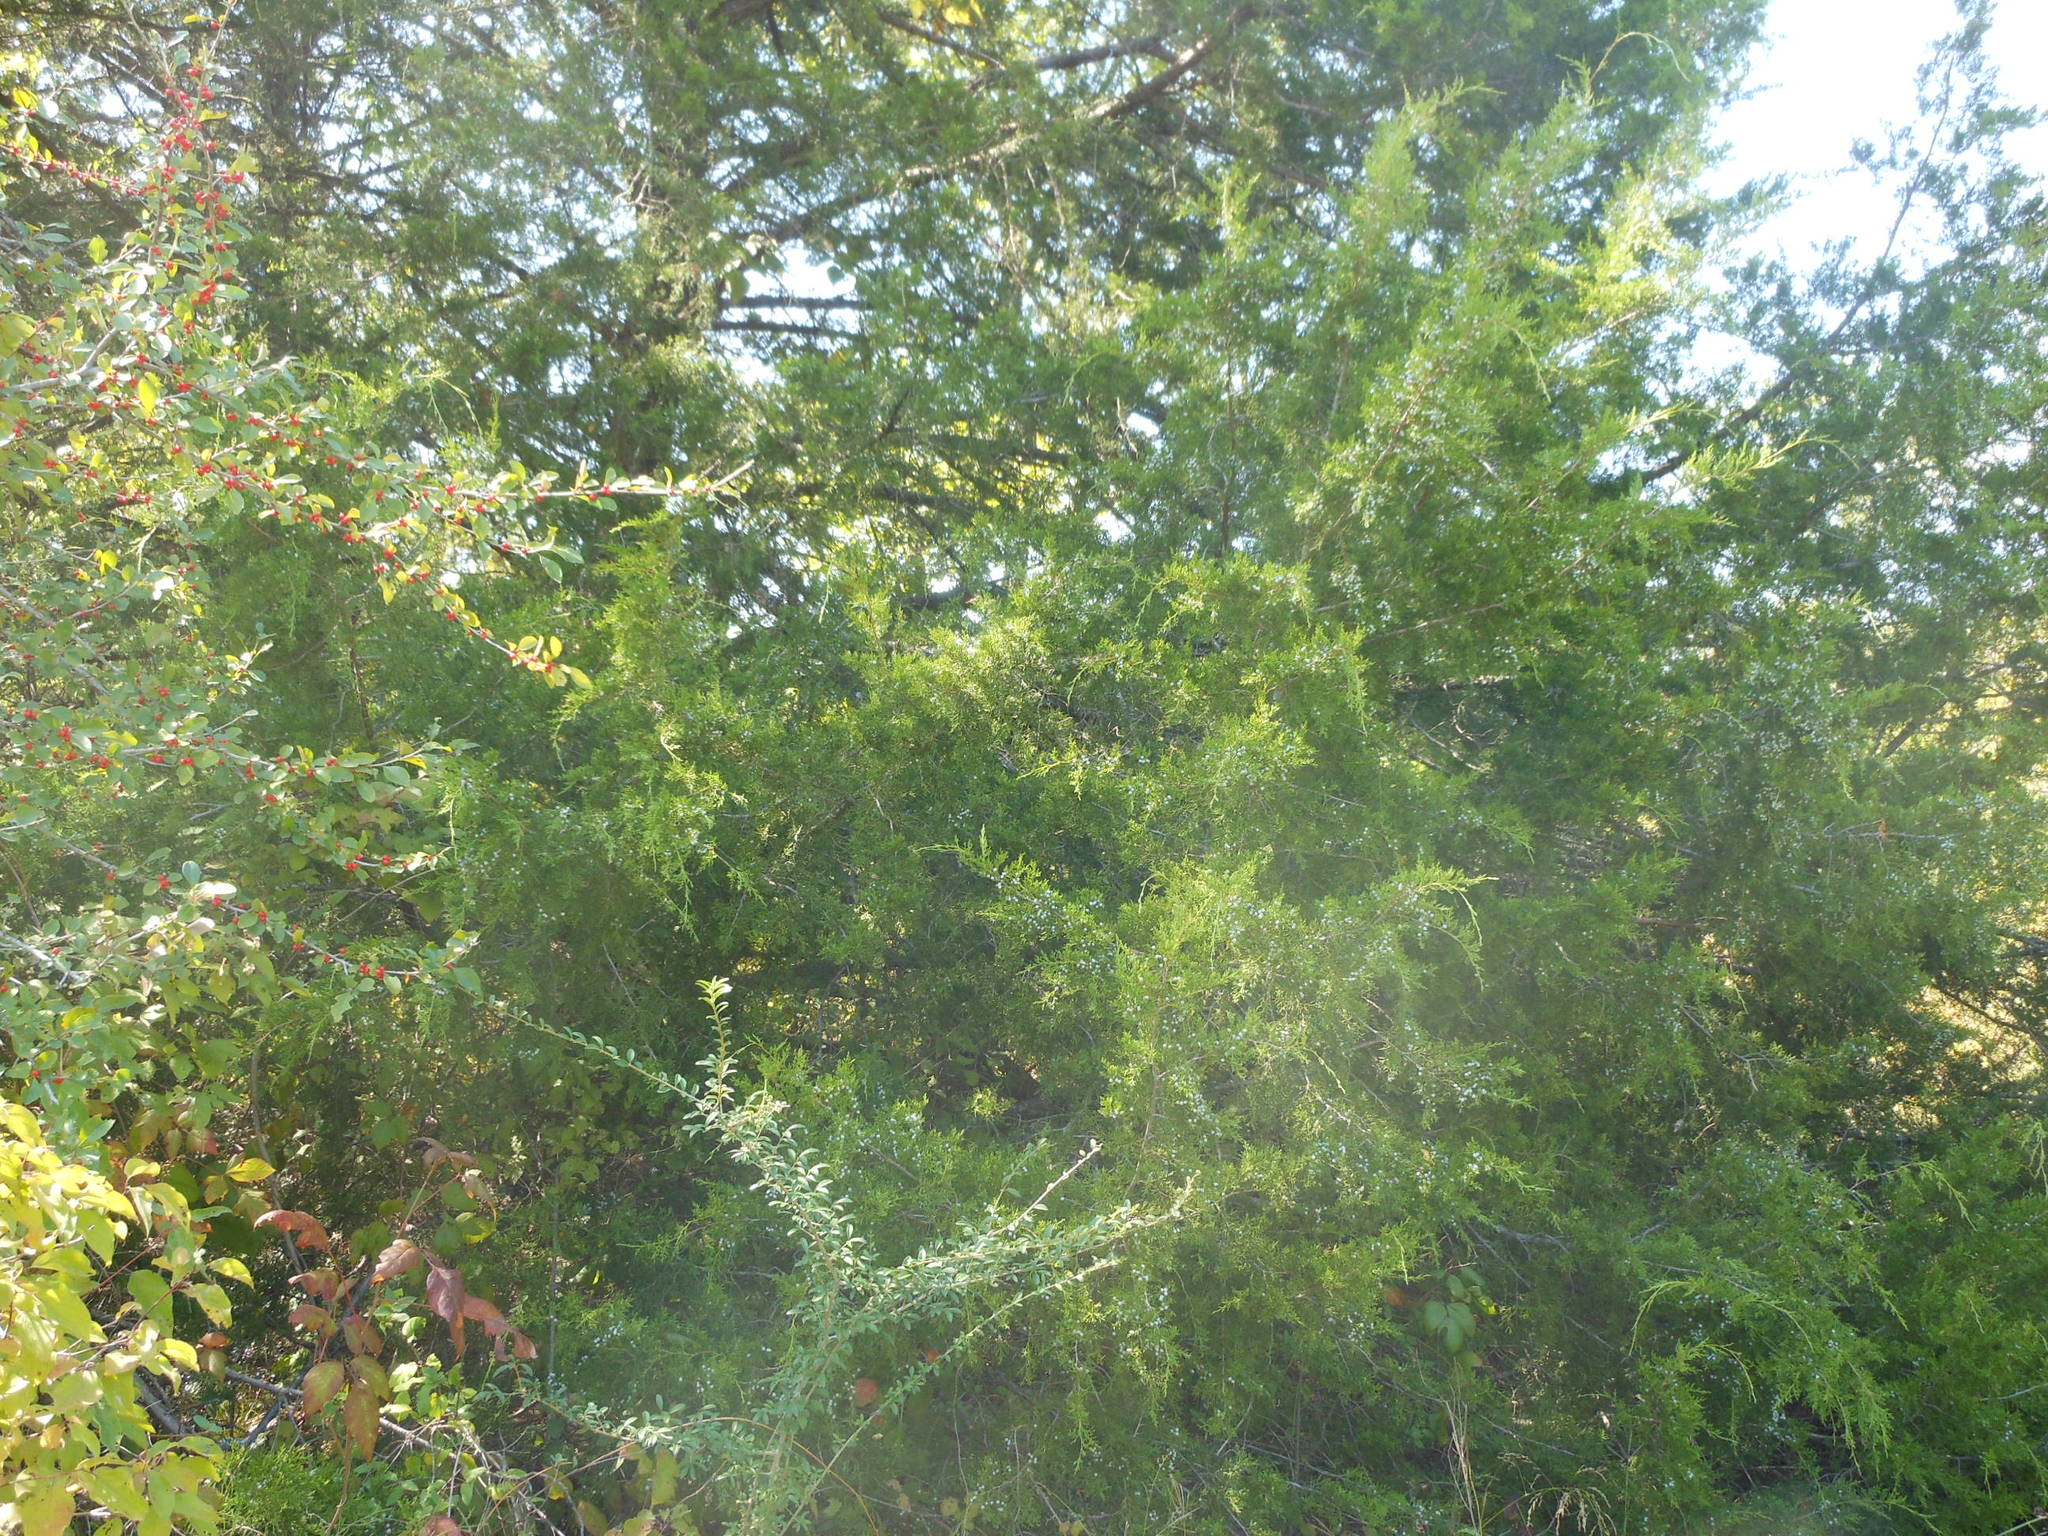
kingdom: Plantae
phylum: Tracheophyta
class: Pinopsida
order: Pinales
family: Cupressaceae
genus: Juniperus
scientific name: Juniperus virginiana
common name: Red juniper
